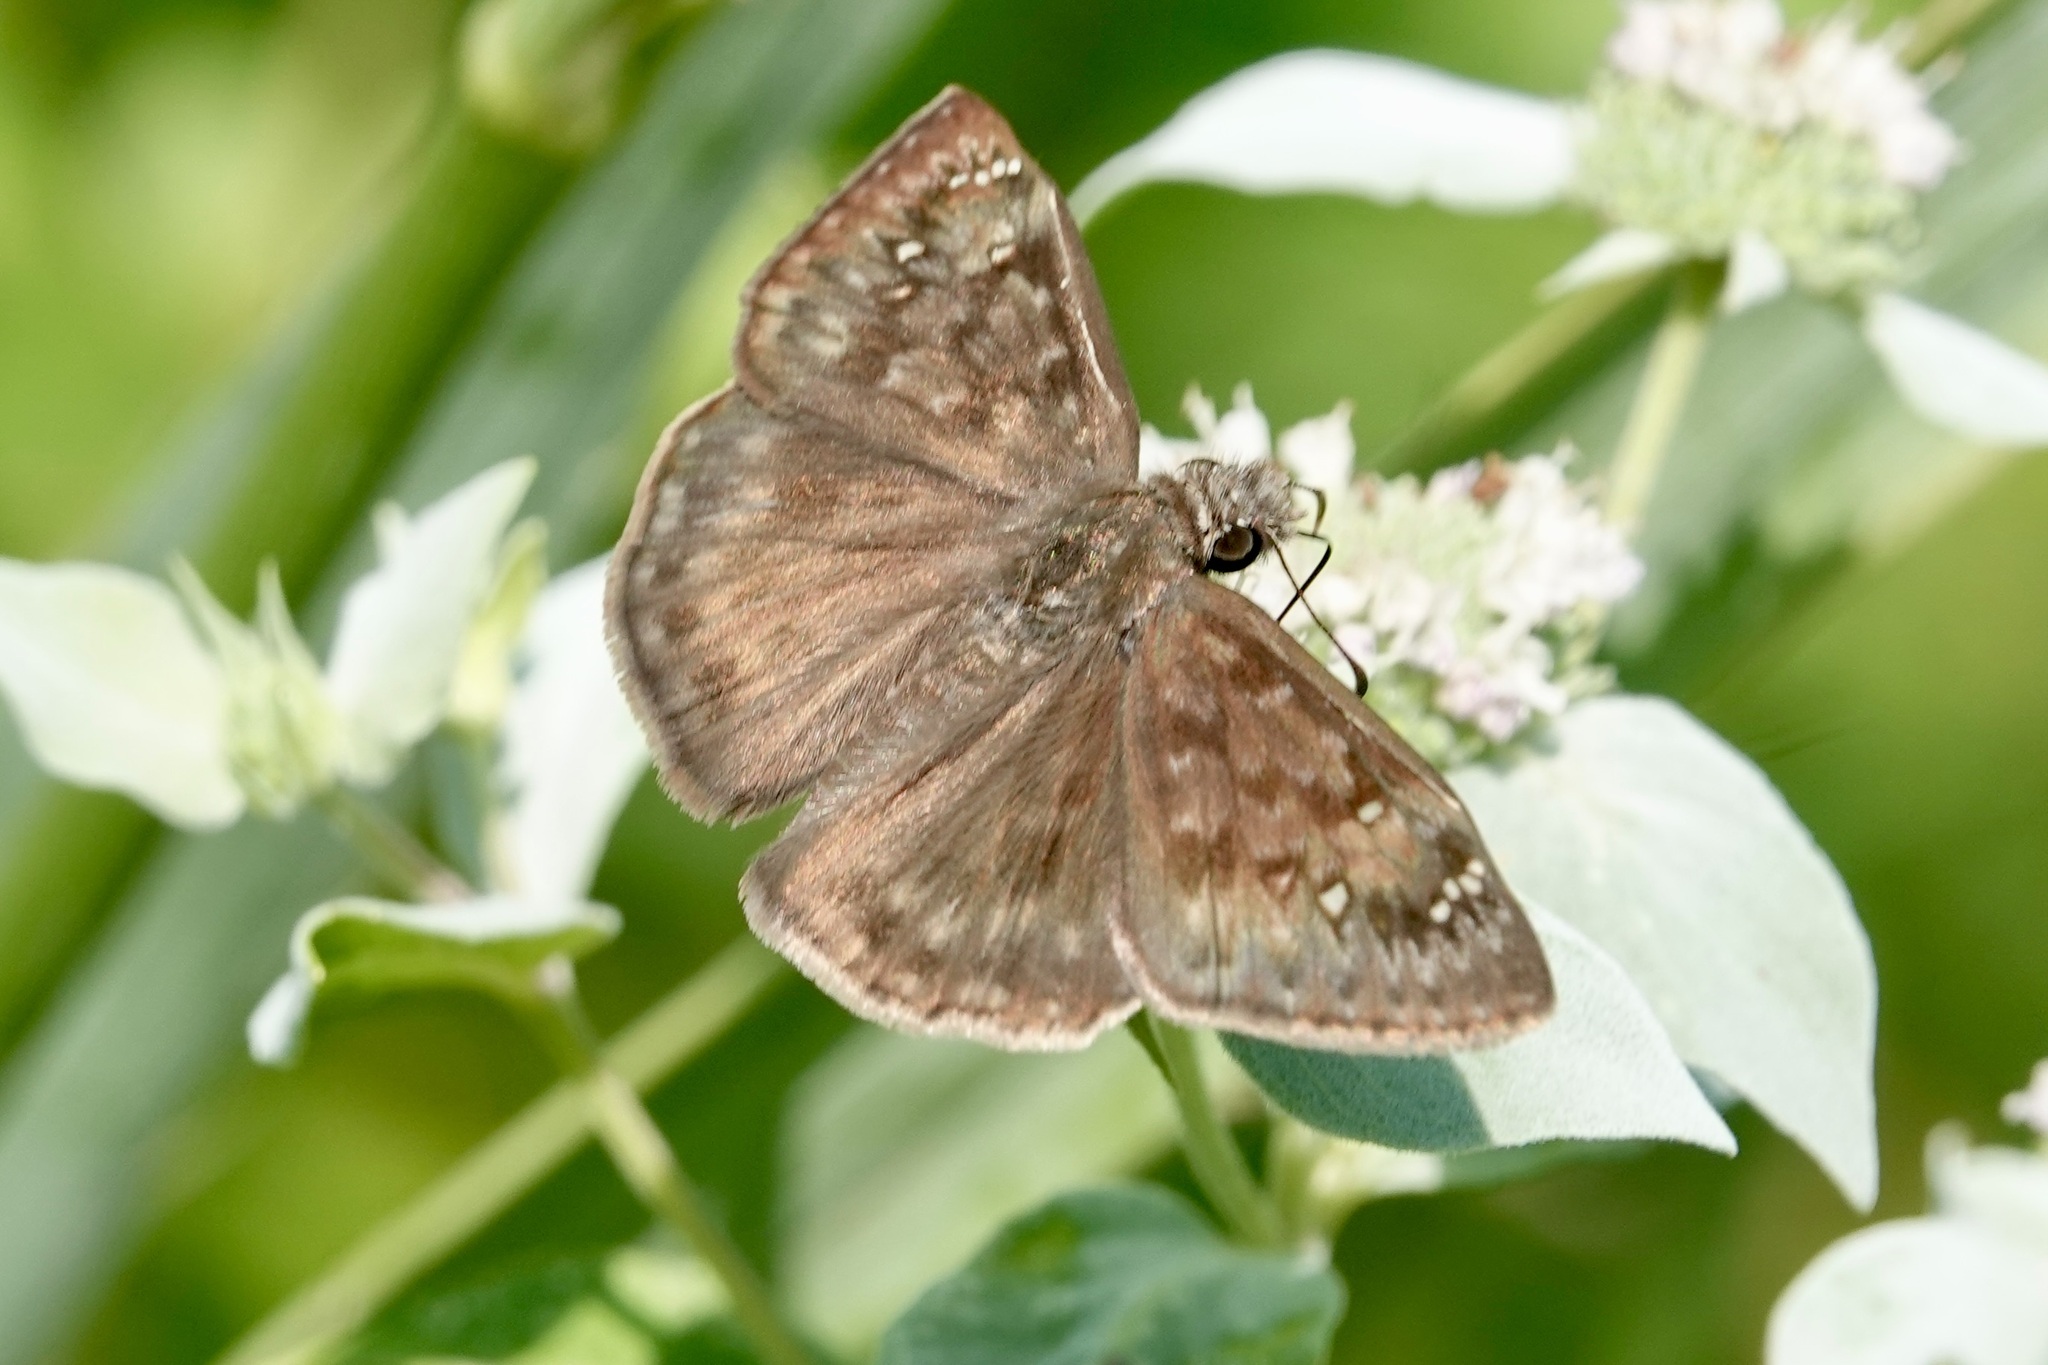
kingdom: Animalia
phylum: Arthropoda
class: Insecta
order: Lepidoptera
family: Hesperiidae
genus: Erynnis
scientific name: Erynnis horatius
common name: Horace's duskywing
